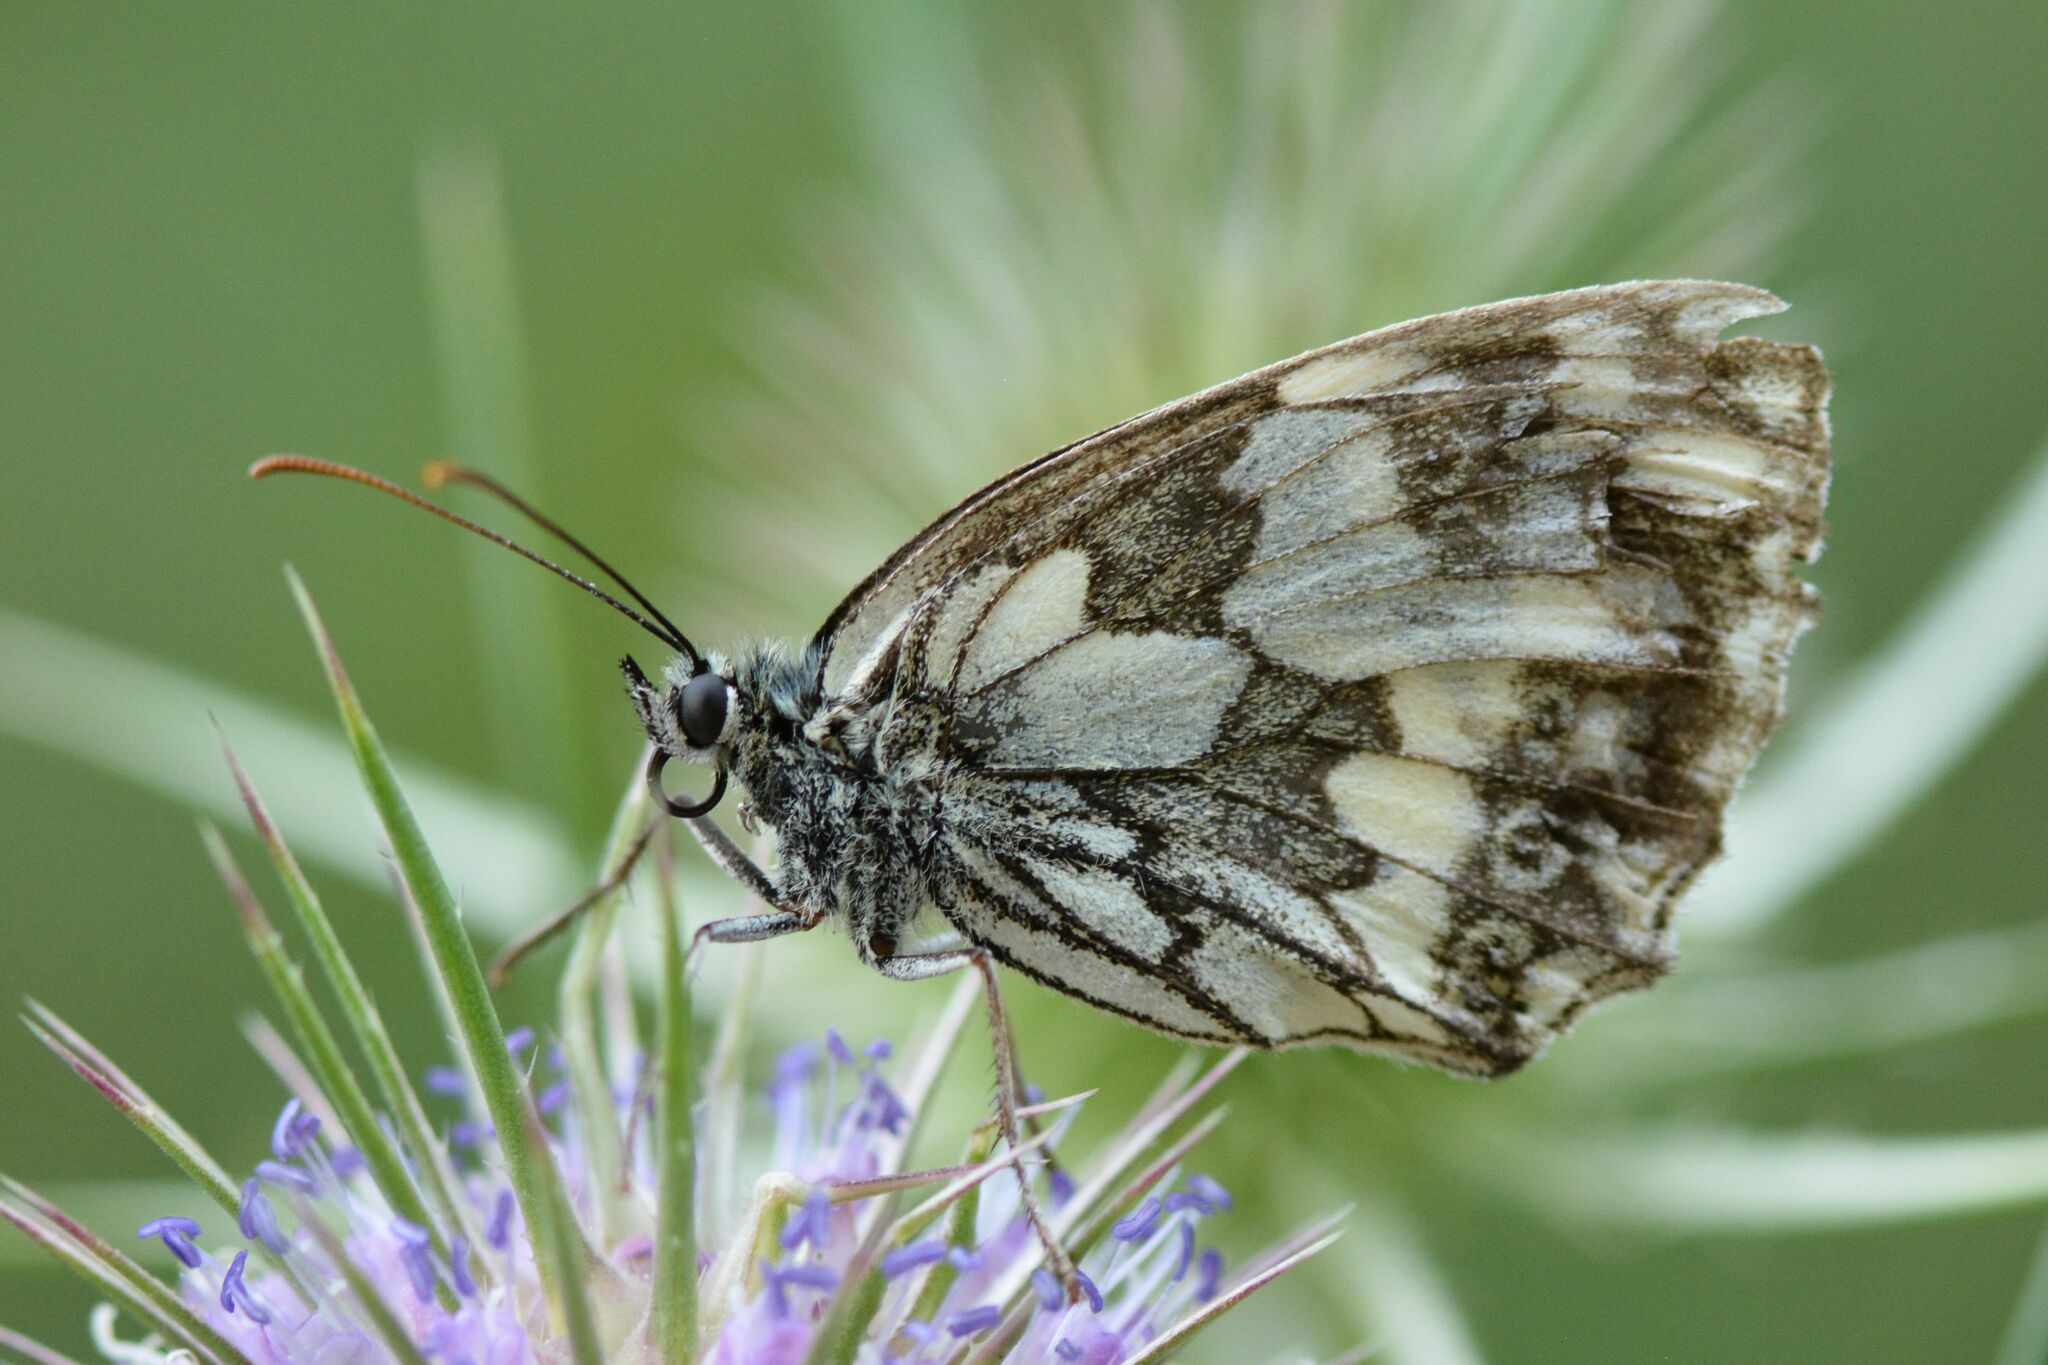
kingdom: Animalia
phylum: Arthropoda
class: Insecta
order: Lepidoptera
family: Nymphalidae
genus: Melanargia
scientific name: Melanargia galathea
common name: Marbled white
